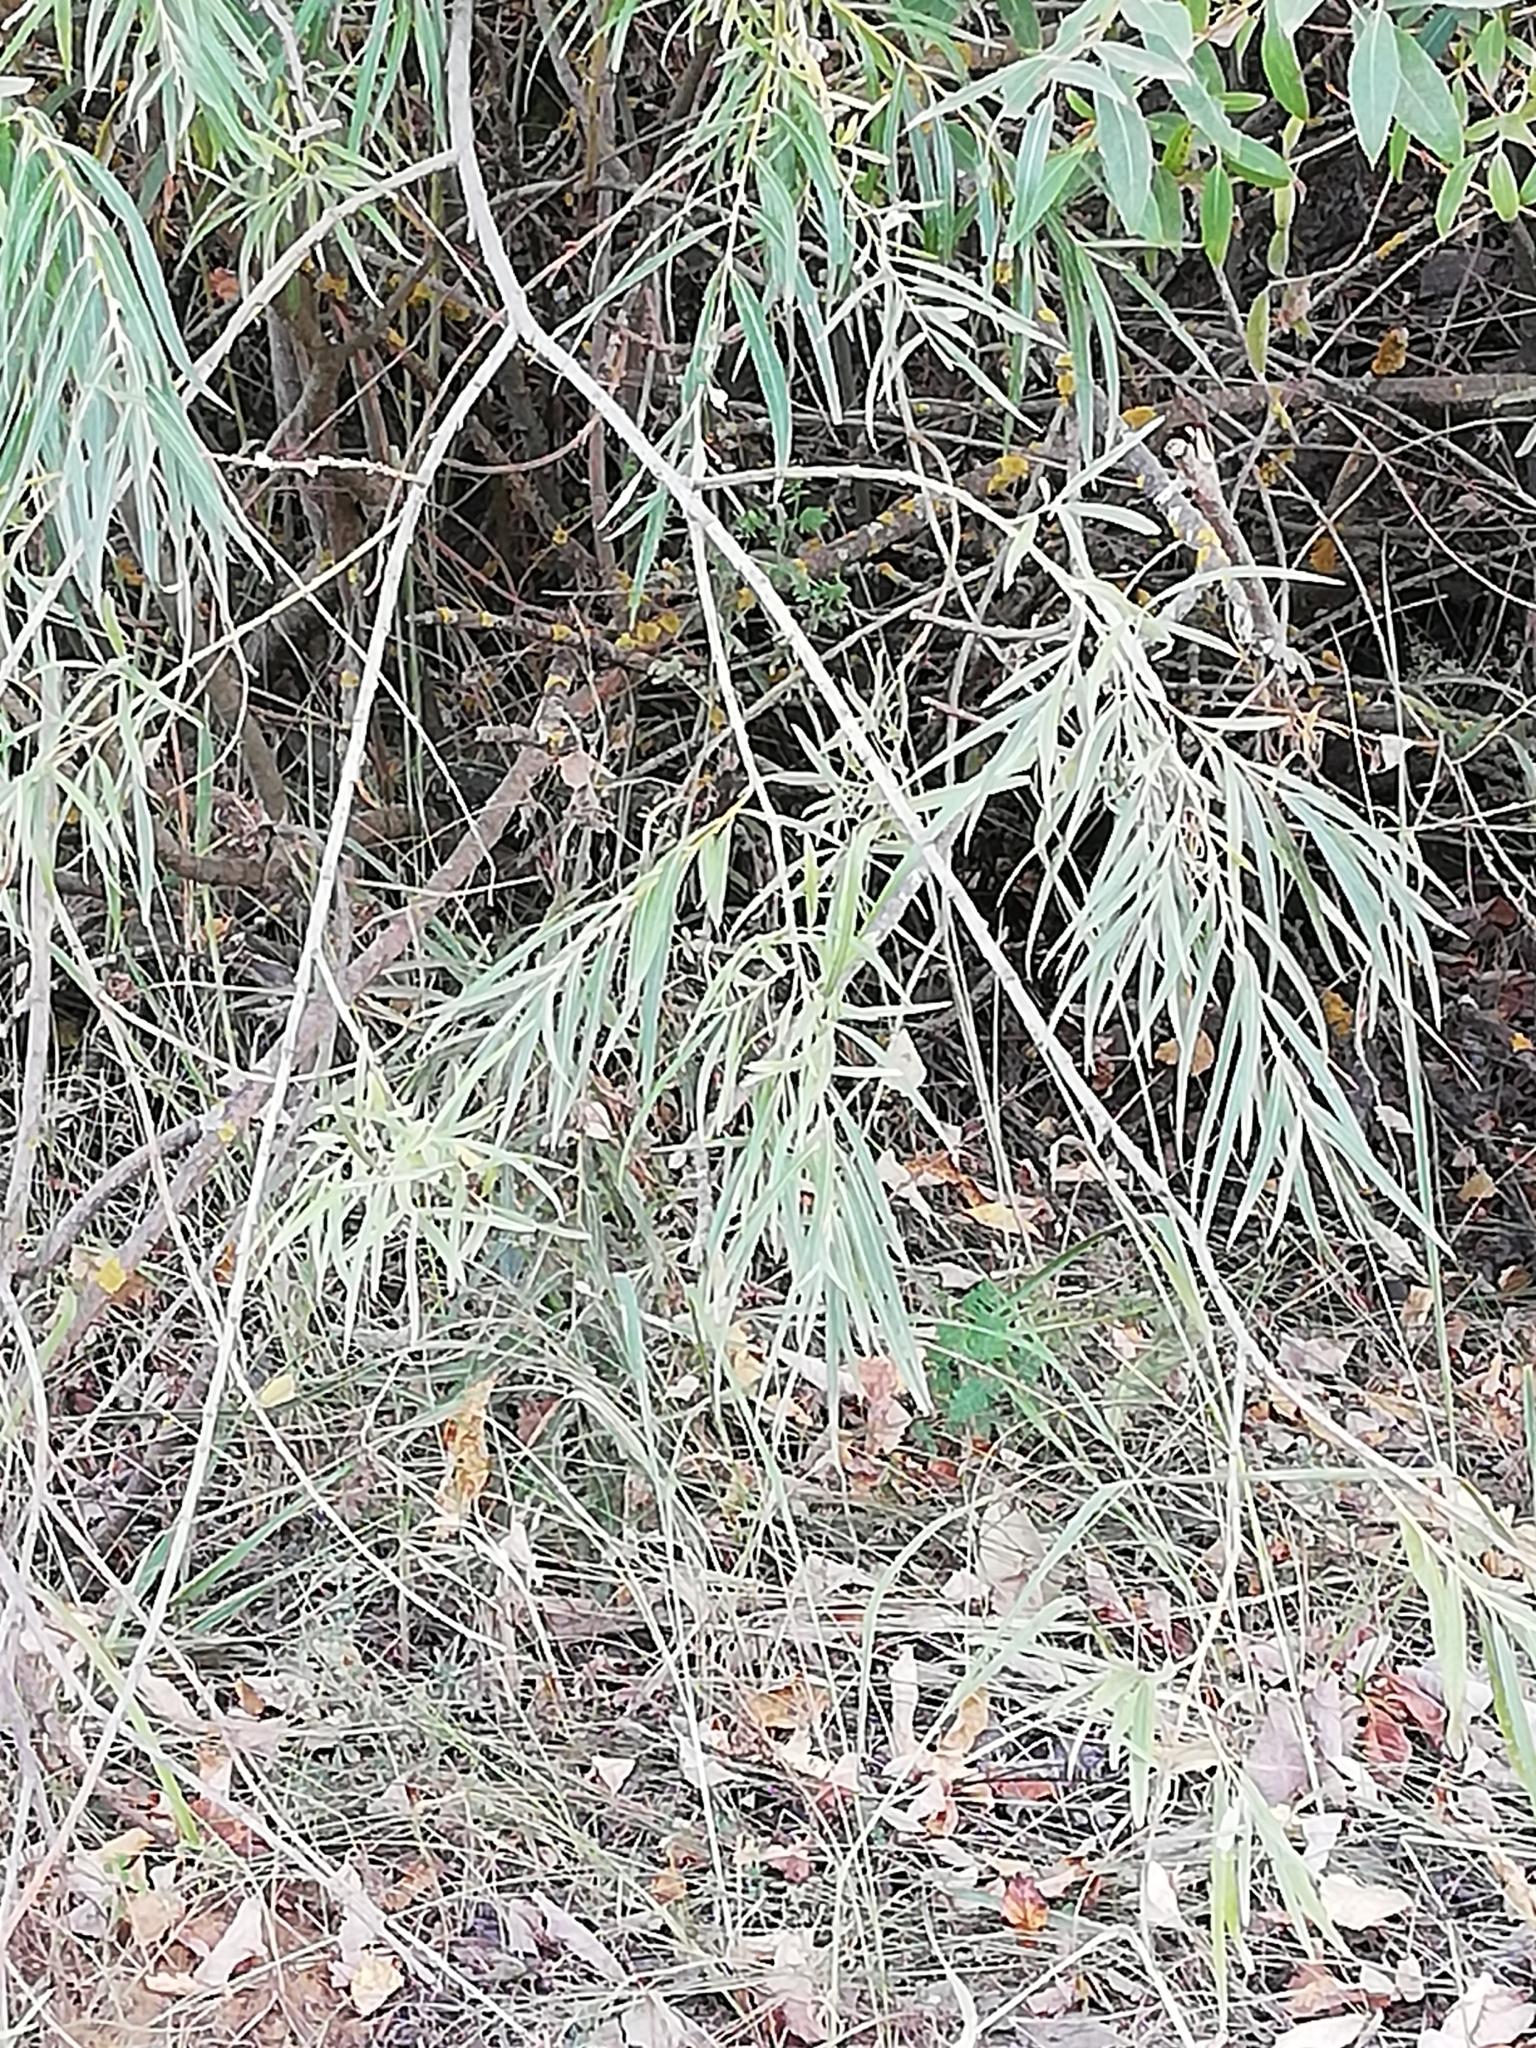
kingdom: Plantae
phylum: Tracheophyta
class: Magnoliopsida
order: Malpighiales
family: Salicaceae
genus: Salix
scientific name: Salix viminalis
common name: Osier
